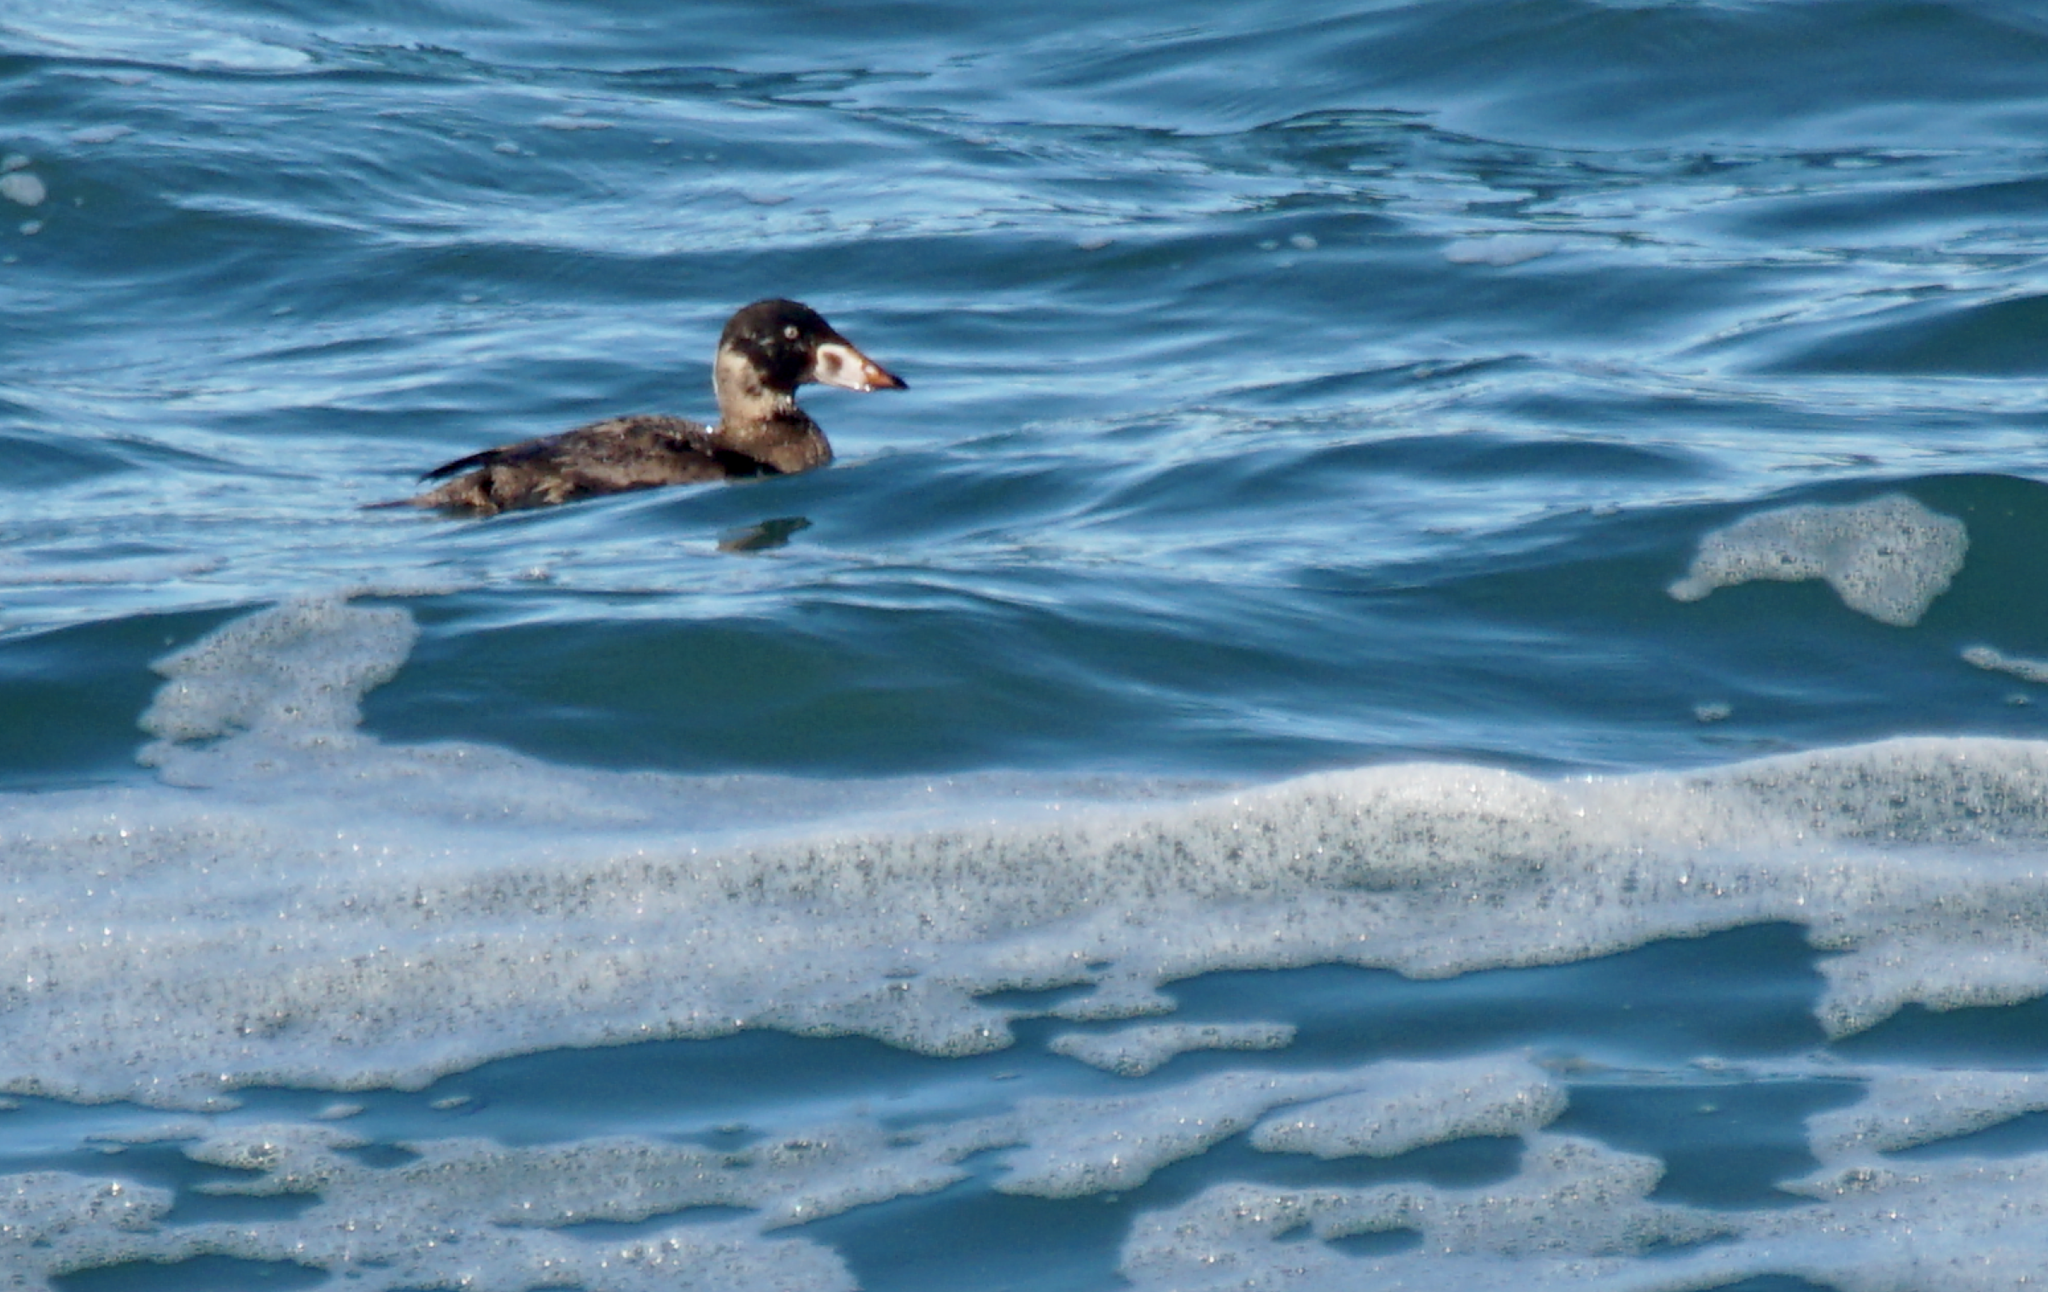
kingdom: Animalia
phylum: Chordata
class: Aves
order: Anseriformes
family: Anatidae
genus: Melanitta
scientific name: Melanitta perspicillata
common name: Surf scoter
